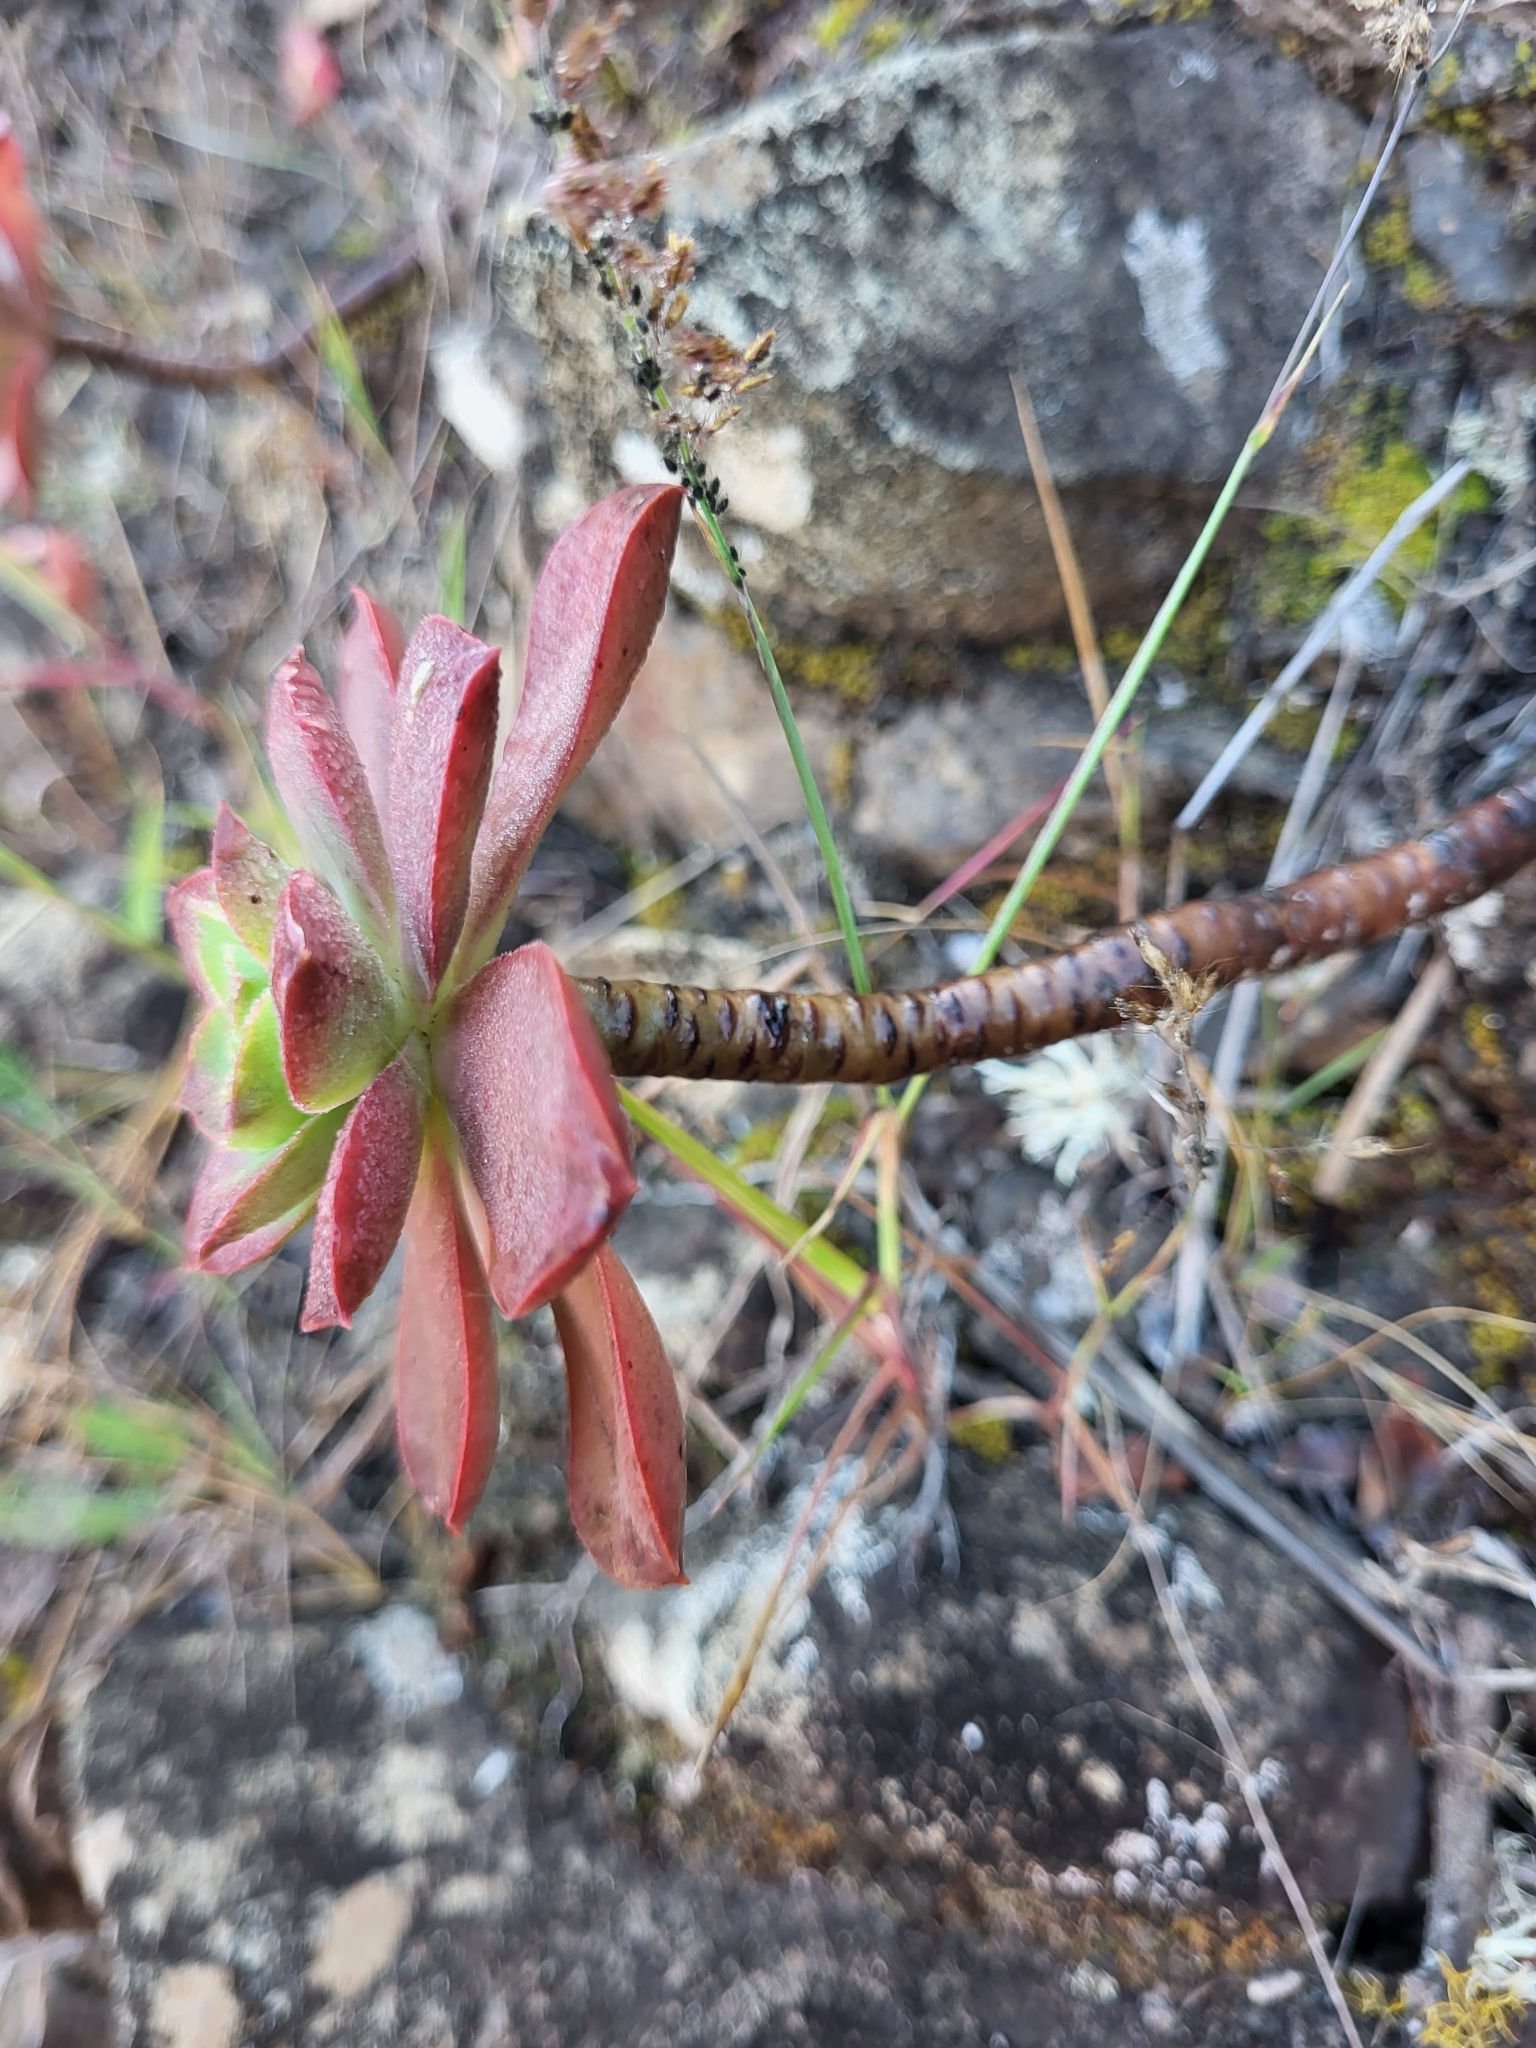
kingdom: Plantae
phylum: Tracheophyta
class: Magnoliopsida
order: Saxifragales
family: Crassulaceae
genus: Aeonium
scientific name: Aeonium gorgoneum
